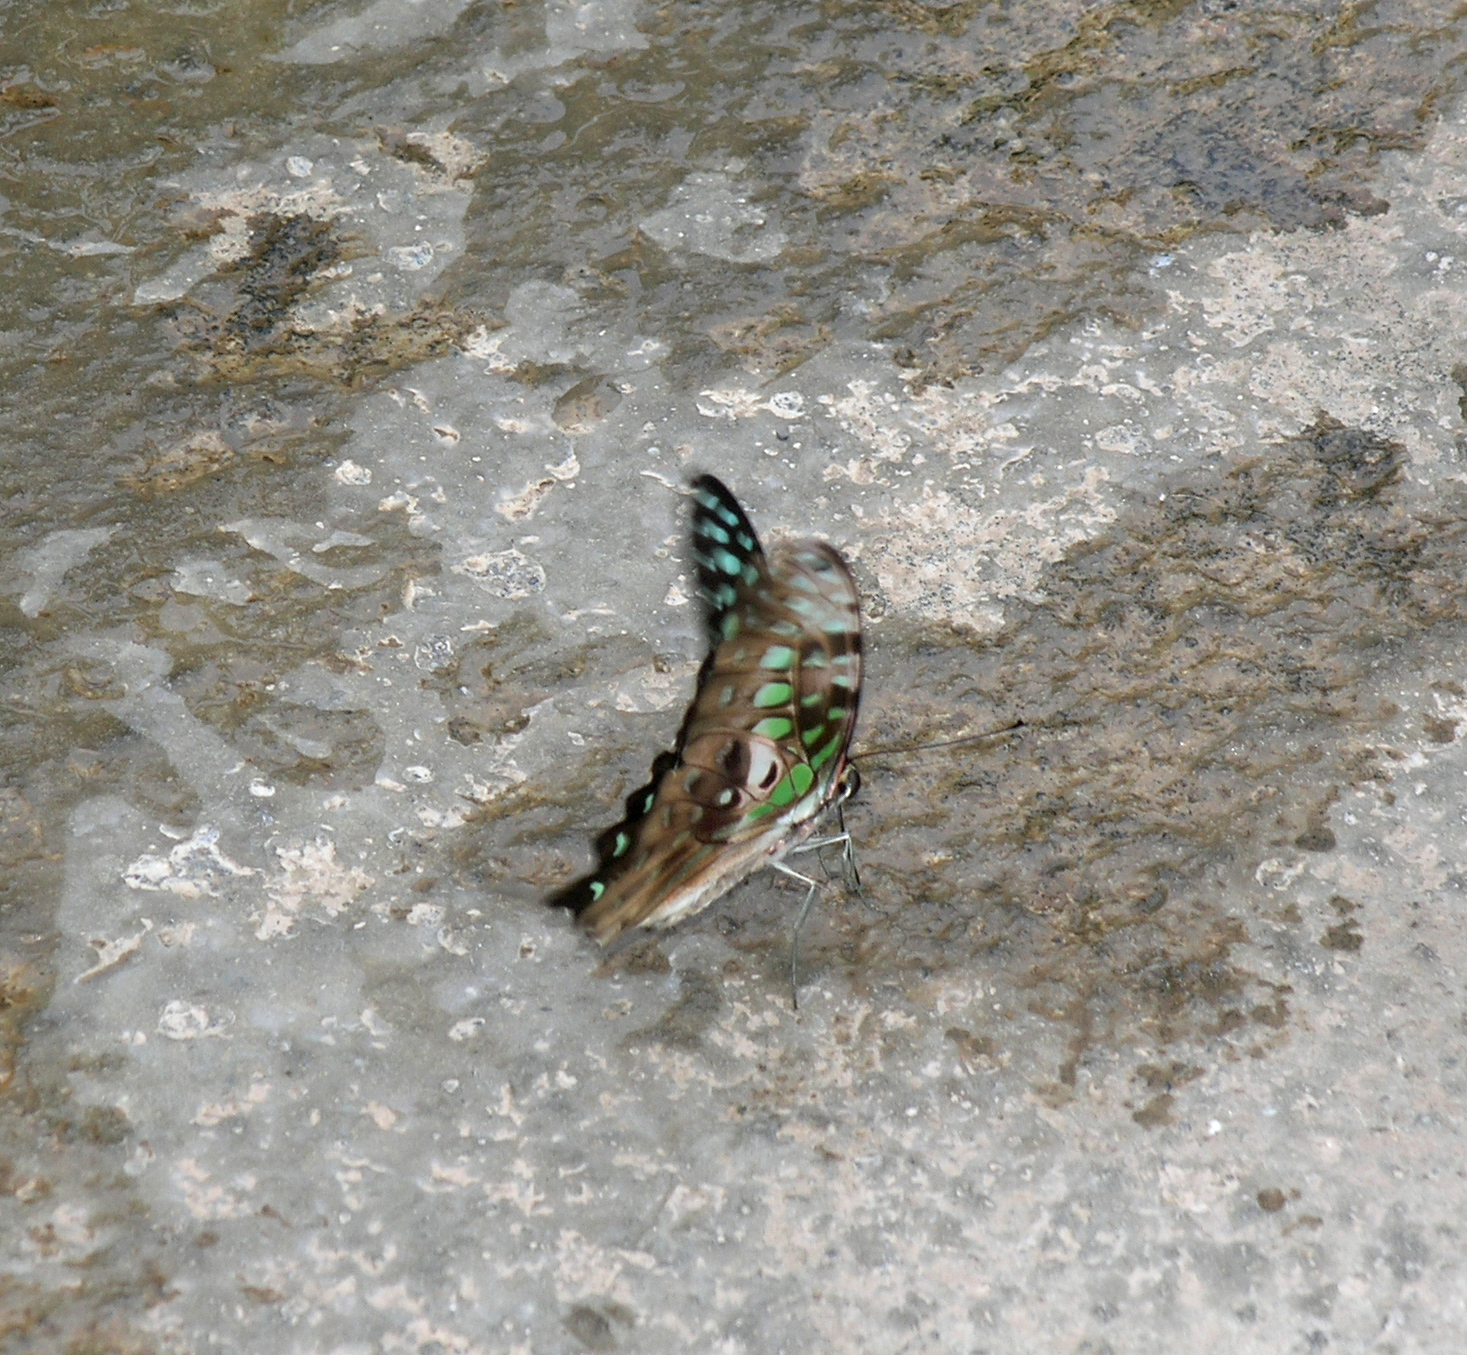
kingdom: Animalia
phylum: Arthropoda
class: Insecta
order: Lepidoptera
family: Papilionidae
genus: Graphium
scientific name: Graphium agamemnon
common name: Tailed jay
